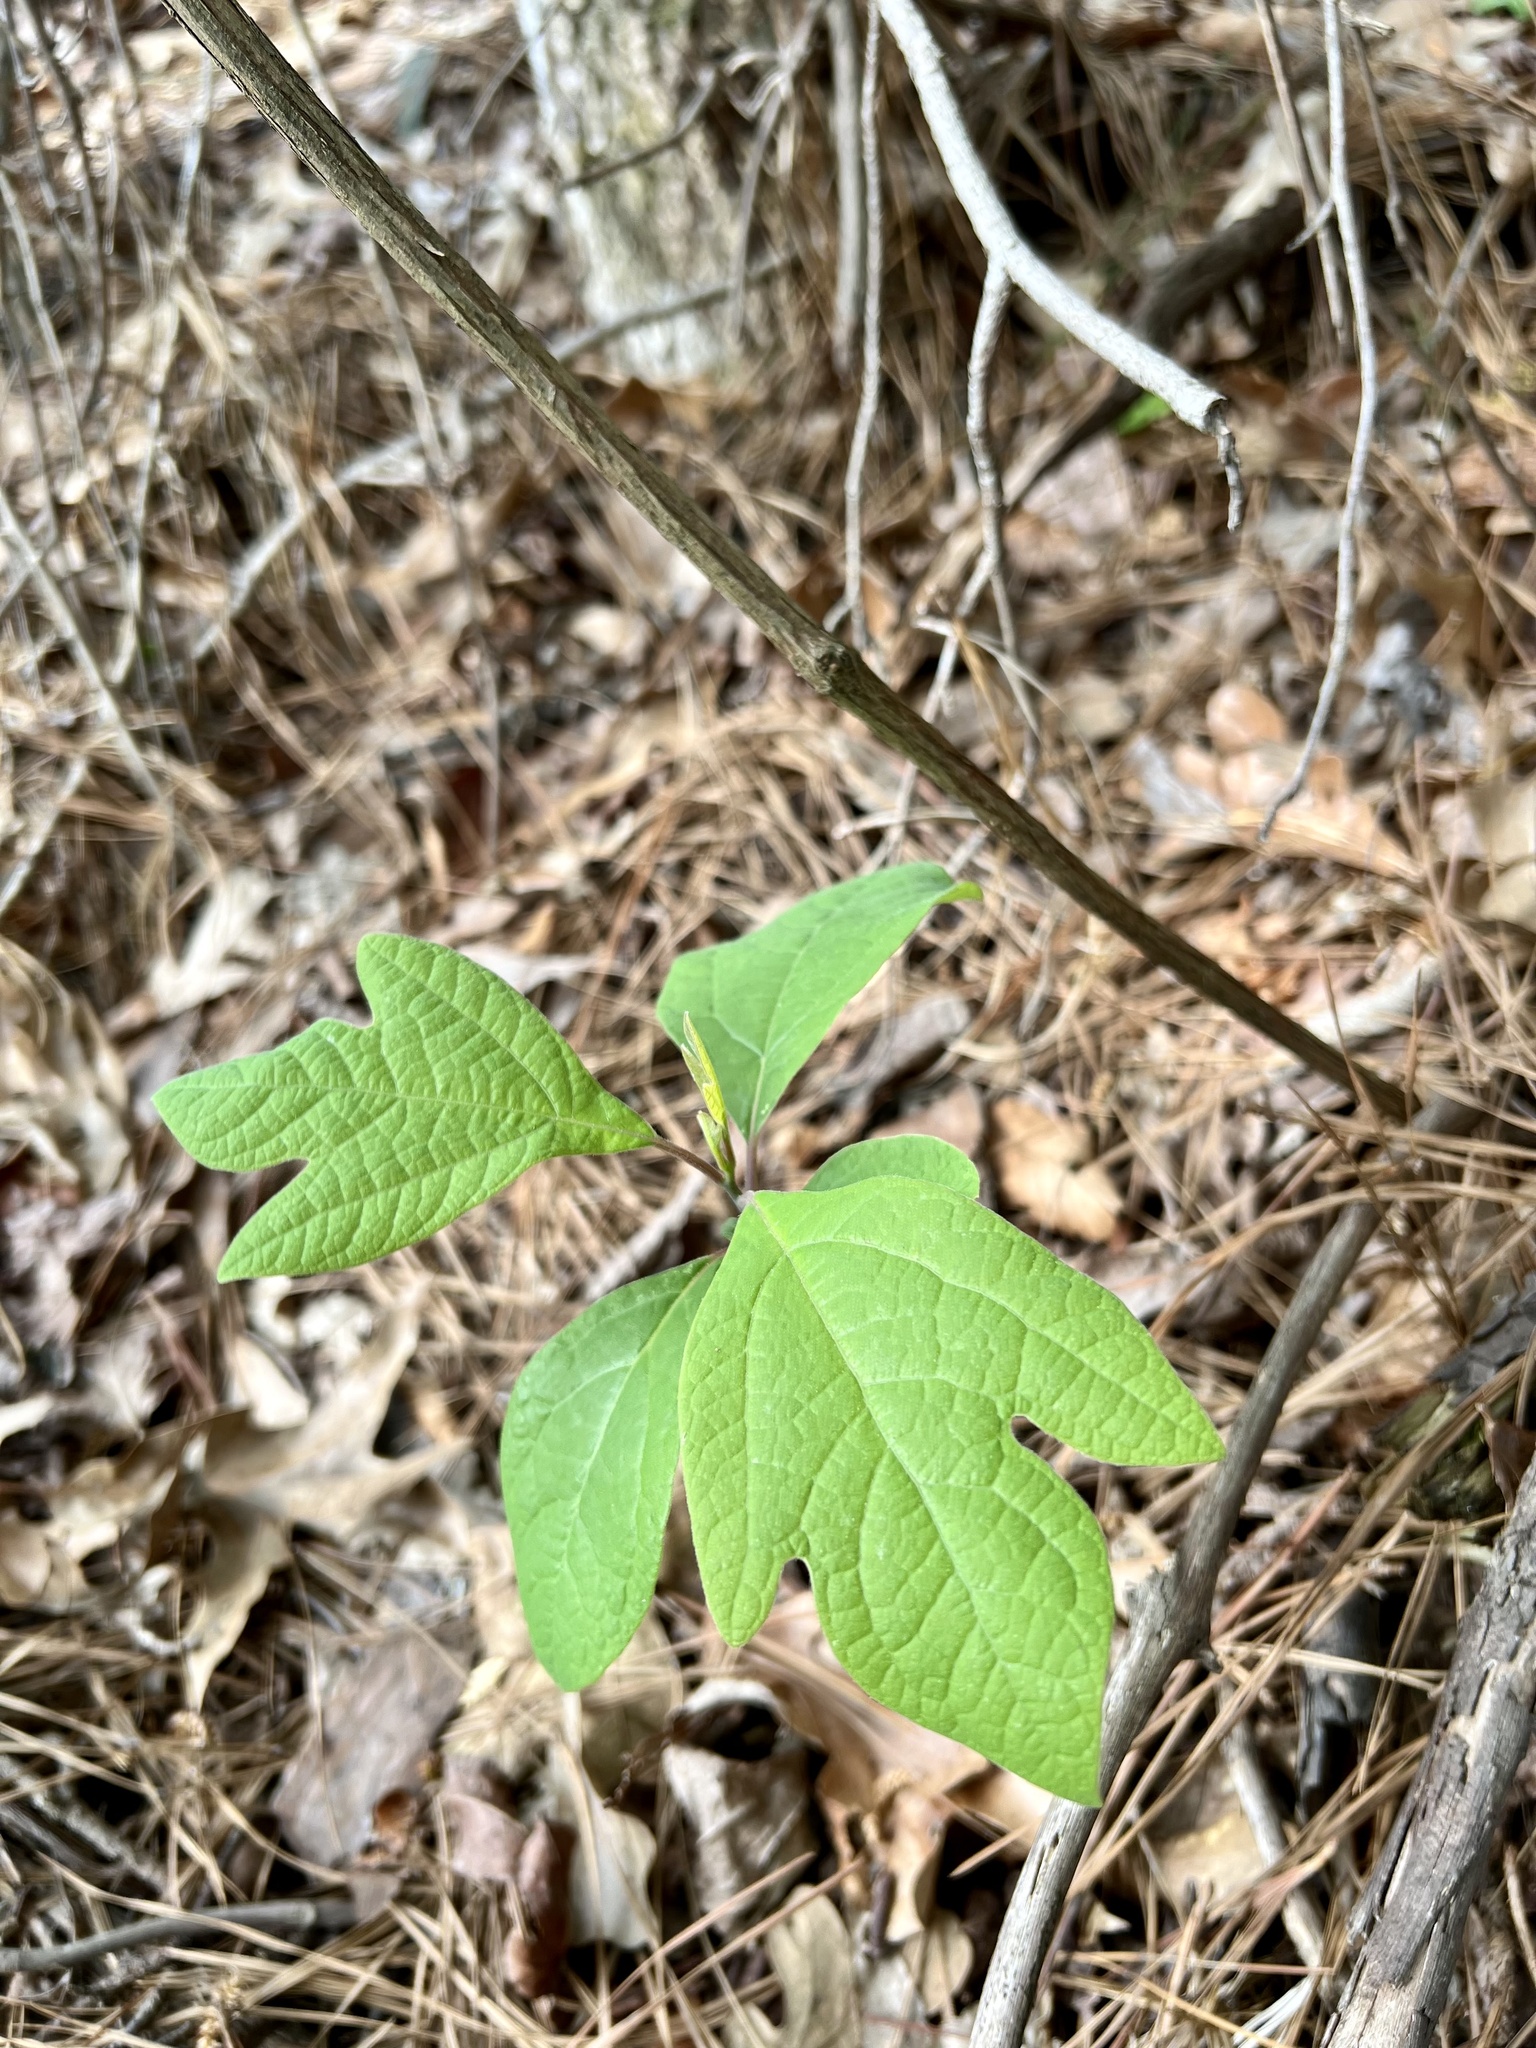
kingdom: Plantae
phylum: Tracheophyta
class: Magnoliopsida
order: Laurales
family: Lauraceae
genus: Sassafras
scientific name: Sassafras albidum
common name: Sassafras
